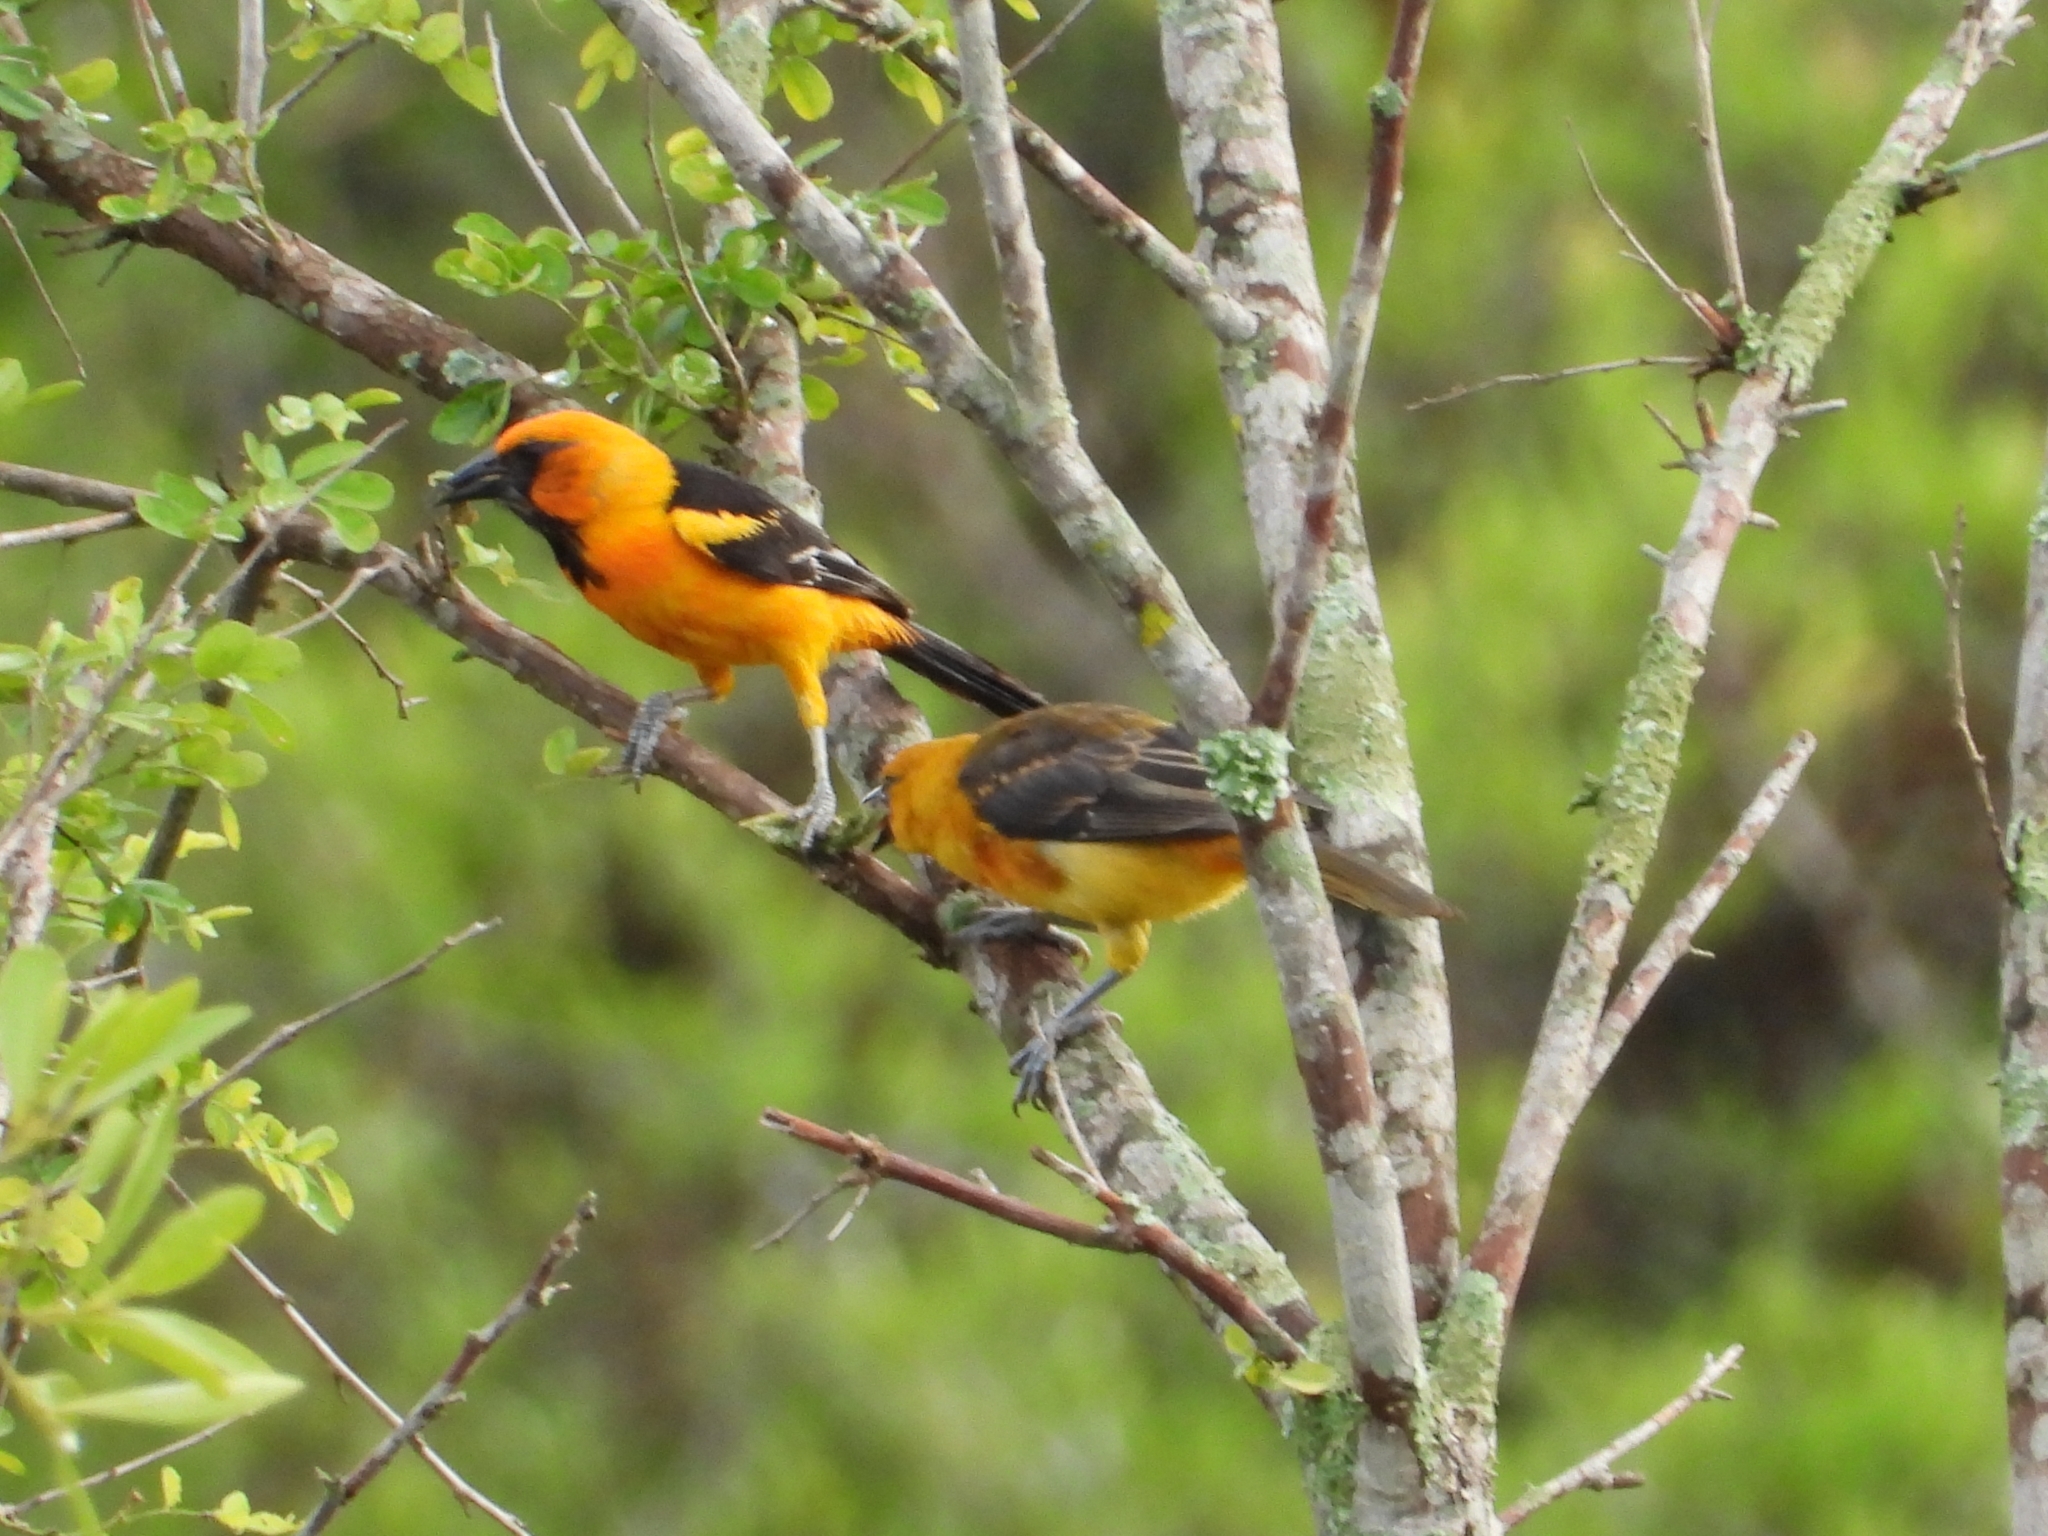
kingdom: Animalia
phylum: Chordata
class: Aves
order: Passeriformes
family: Icteridae
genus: Icterus
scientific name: Icterus gularis
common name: Altamira oriole
